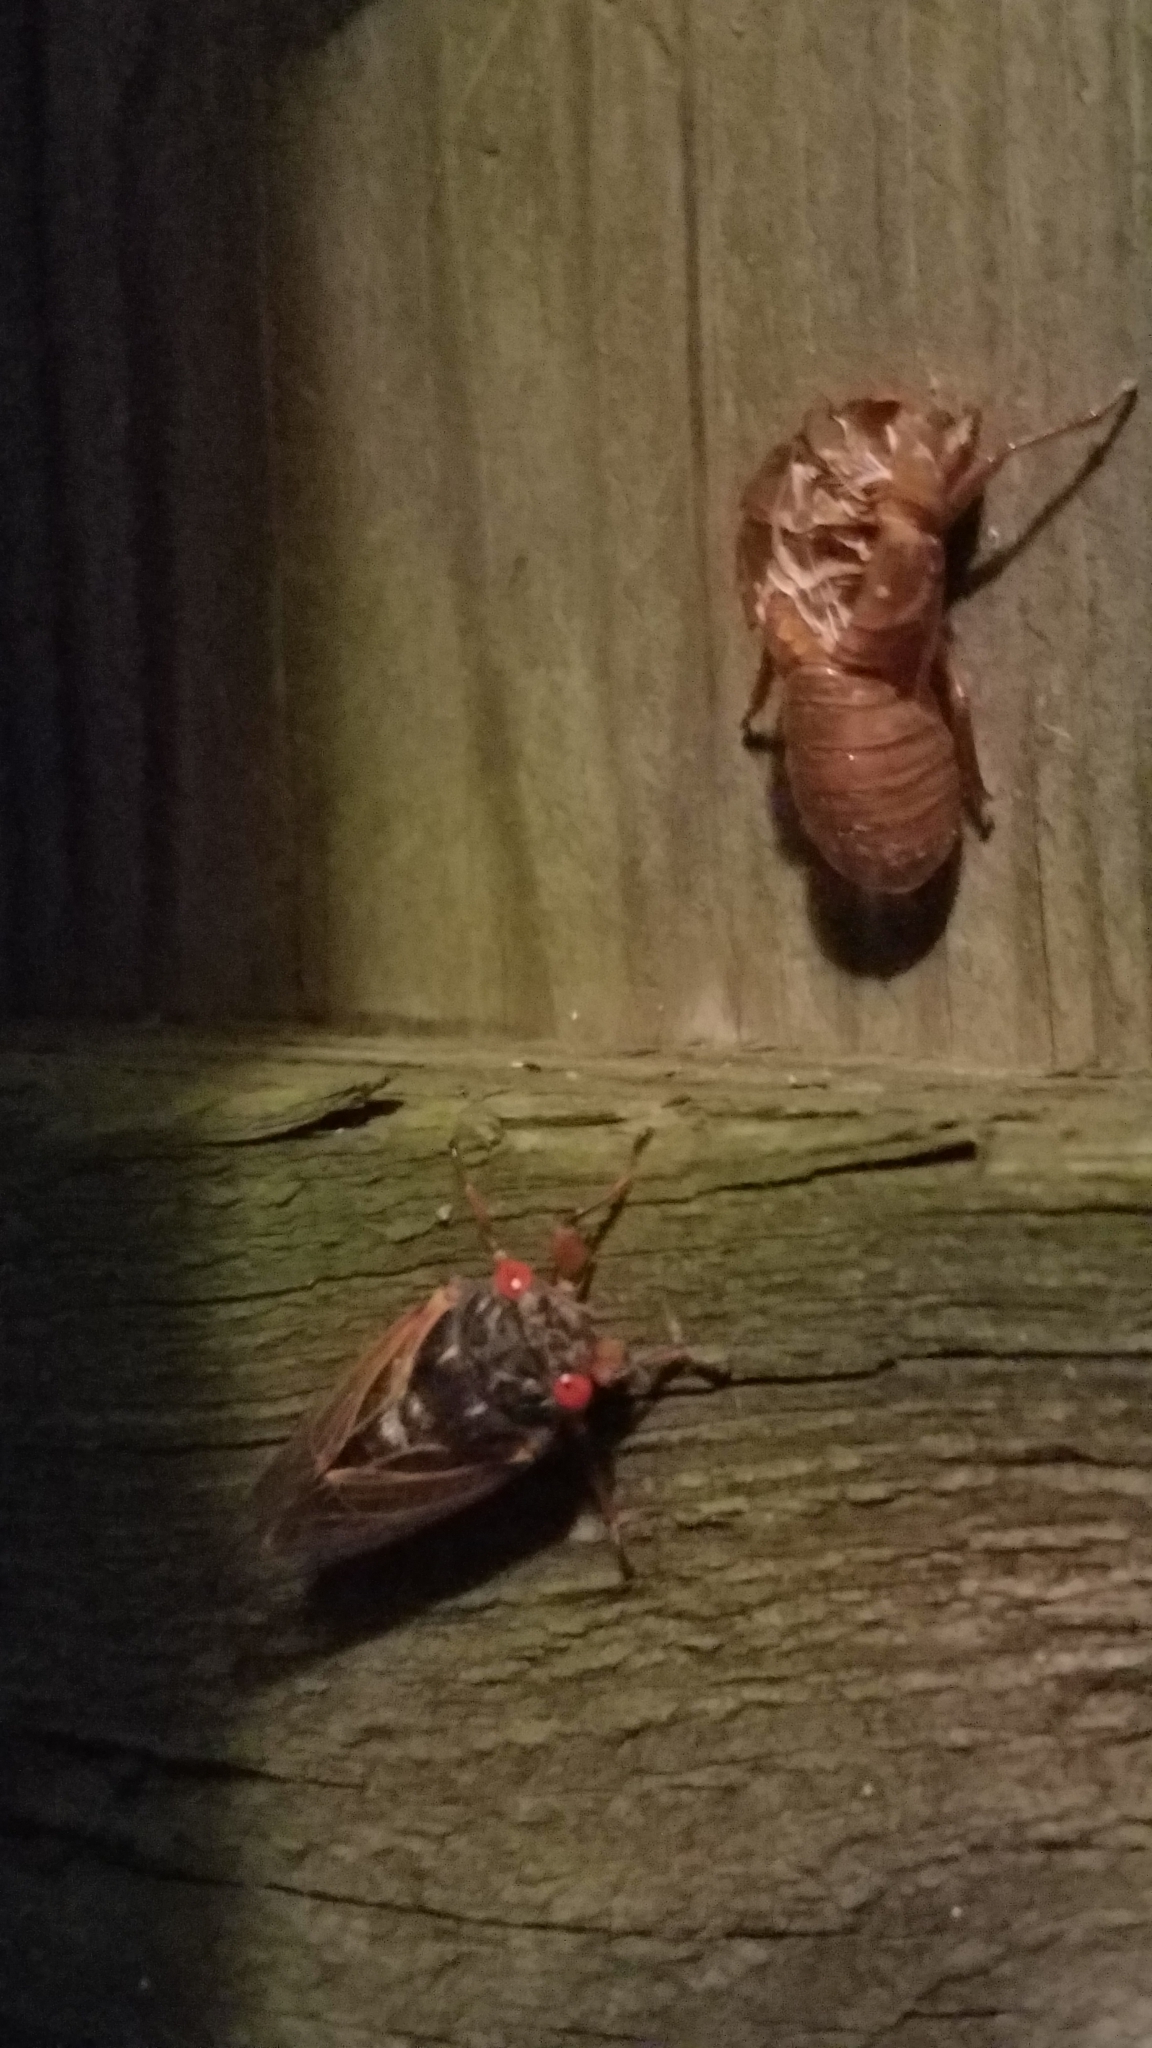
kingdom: Animalia
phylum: Arthropoda
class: Insecta
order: Hemiptera
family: Cicadidae
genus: Magicicada
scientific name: Magicicada
